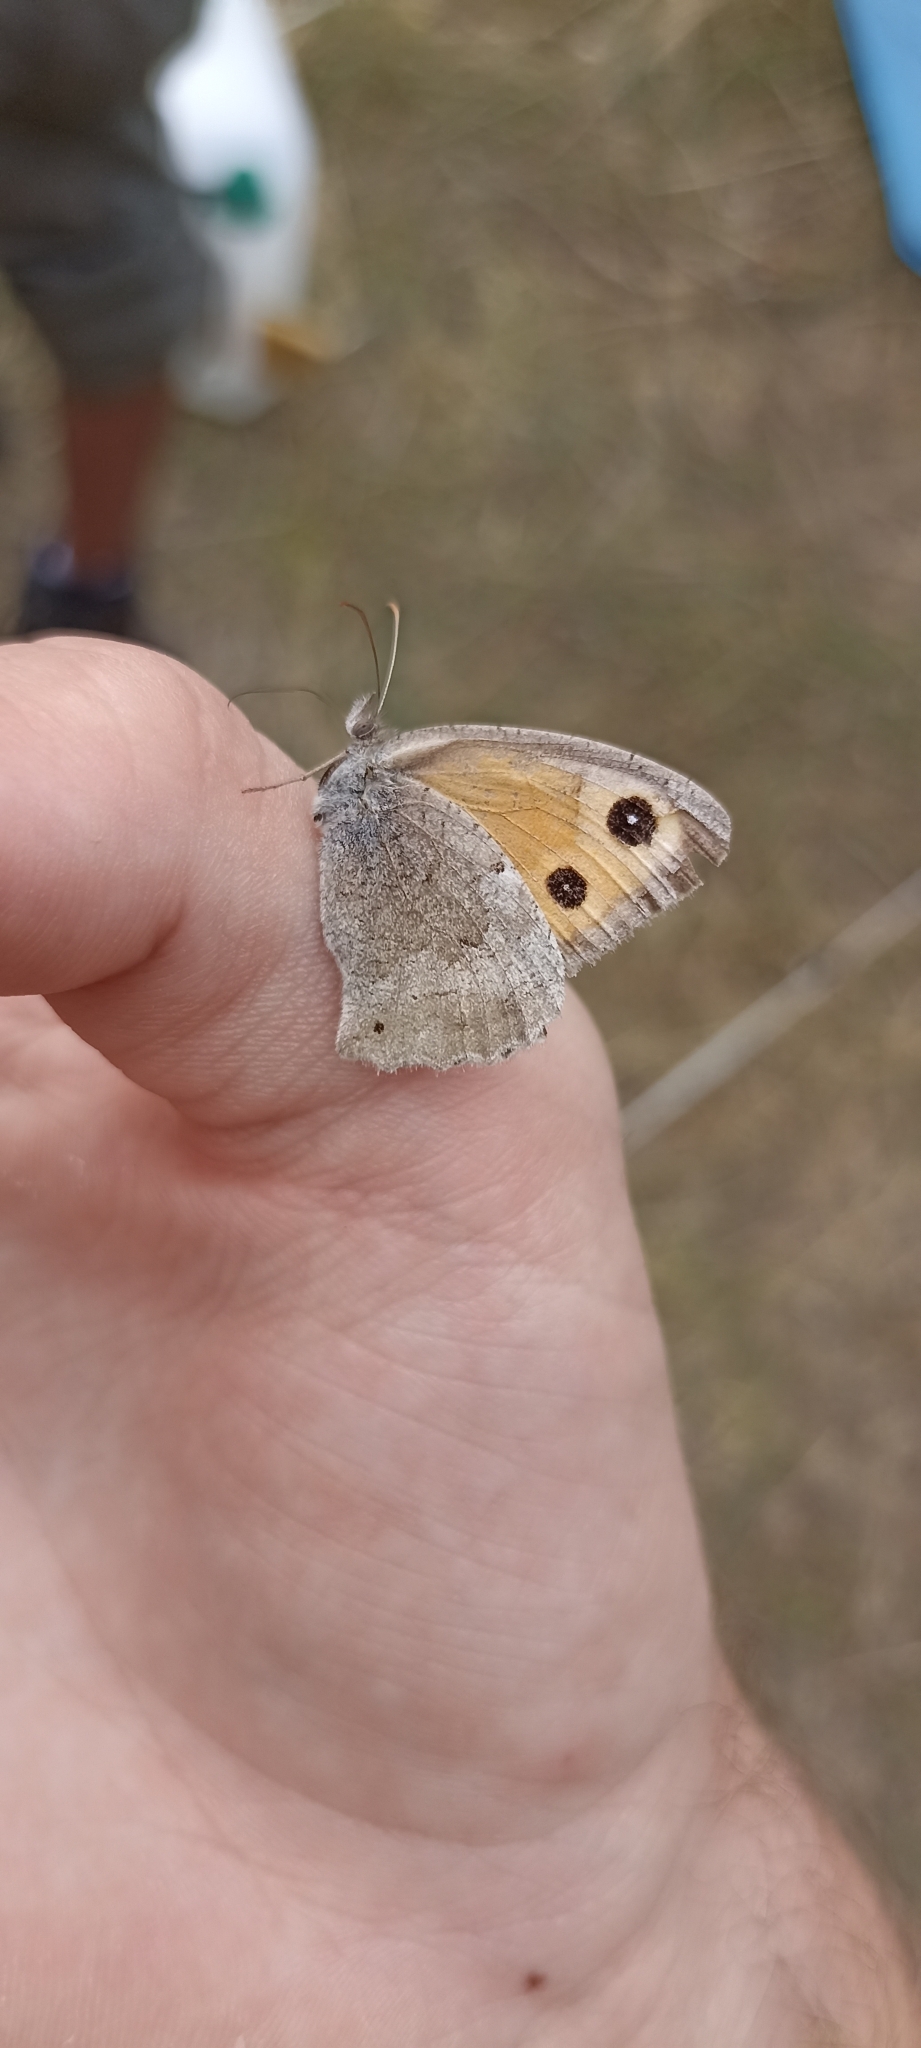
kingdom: Animalia
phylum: Arthropoda
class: Insecta
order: Lepidoptera
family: Nymphalidae
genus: Hyponephele
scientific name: Hyponephele lycaon
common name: Dusky meadow brown
